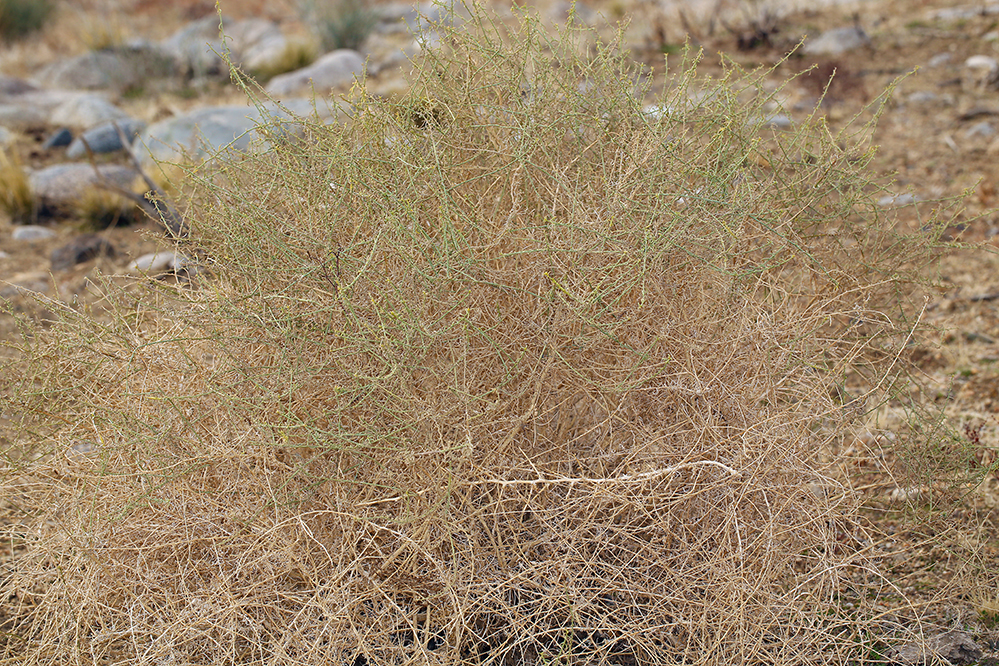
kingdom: Plantae
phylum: Tracheophyta
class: Magnoliopsida
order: Asterales
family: Asteraceae
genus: Ambrosia
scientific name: Ambrosia salsola
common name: Burrobrush
